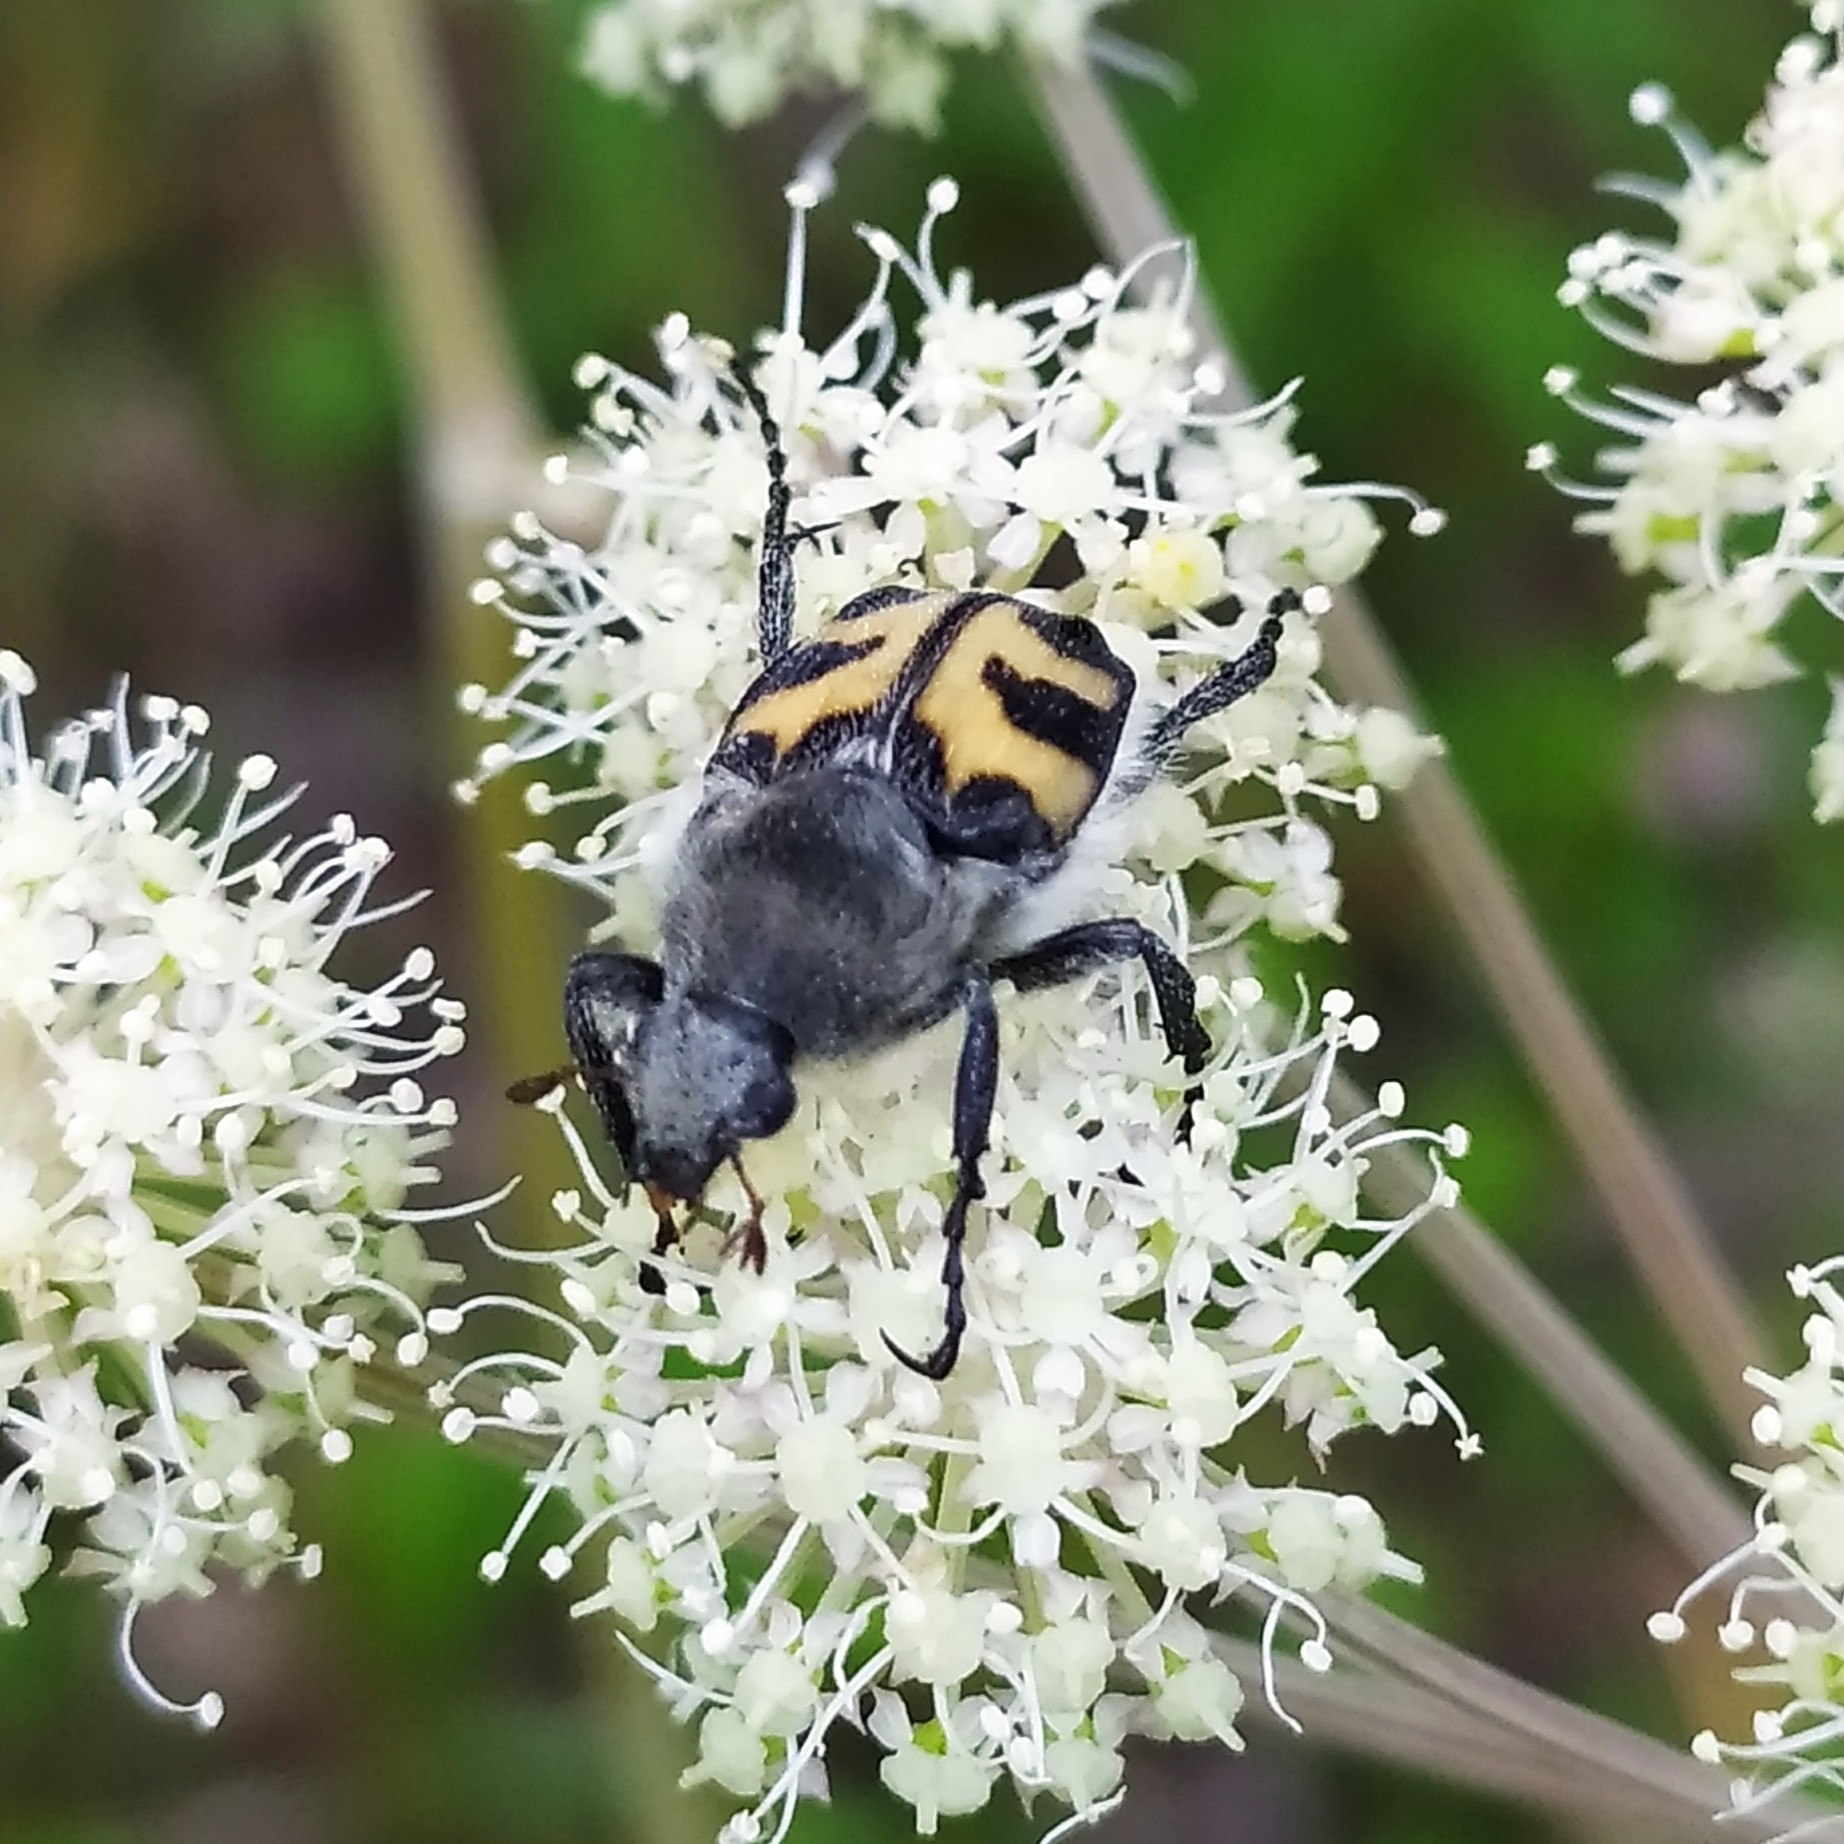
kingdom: Animalia
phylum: Arthropoda
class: Insecta
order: Coleoptera
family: Scarabaeidae
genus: Trichius
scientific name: Trichius fasciatus
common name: Bee beetle
